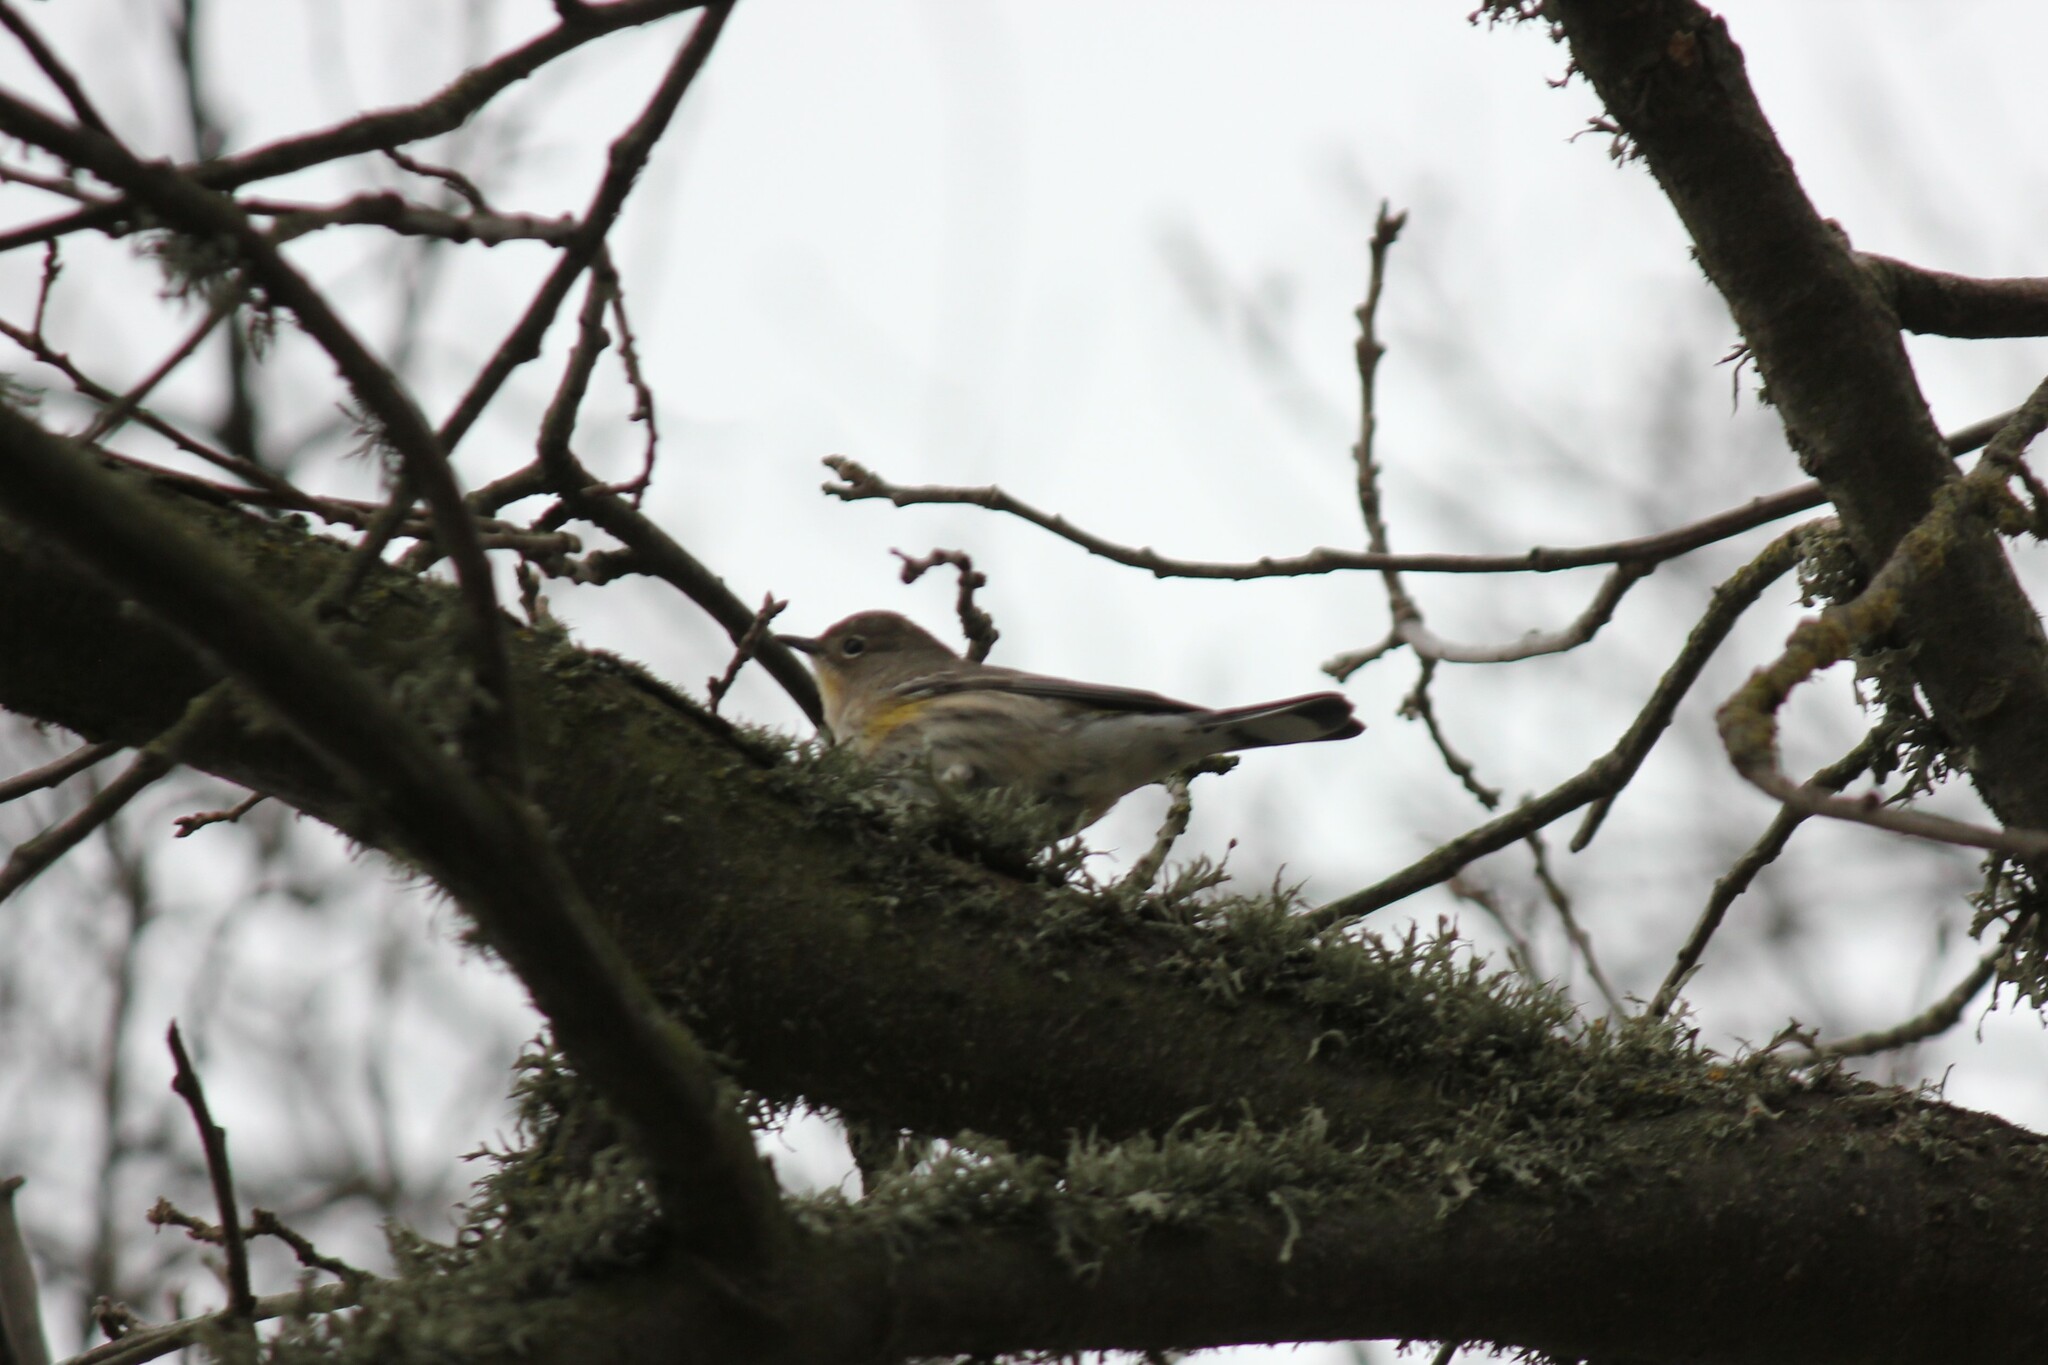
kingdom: Animalia
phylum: Chordata
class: Aves
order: Passeriformes
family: Parulidae
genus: Setophaga
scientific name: Setophaga coronata
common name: Myrtle warbler
